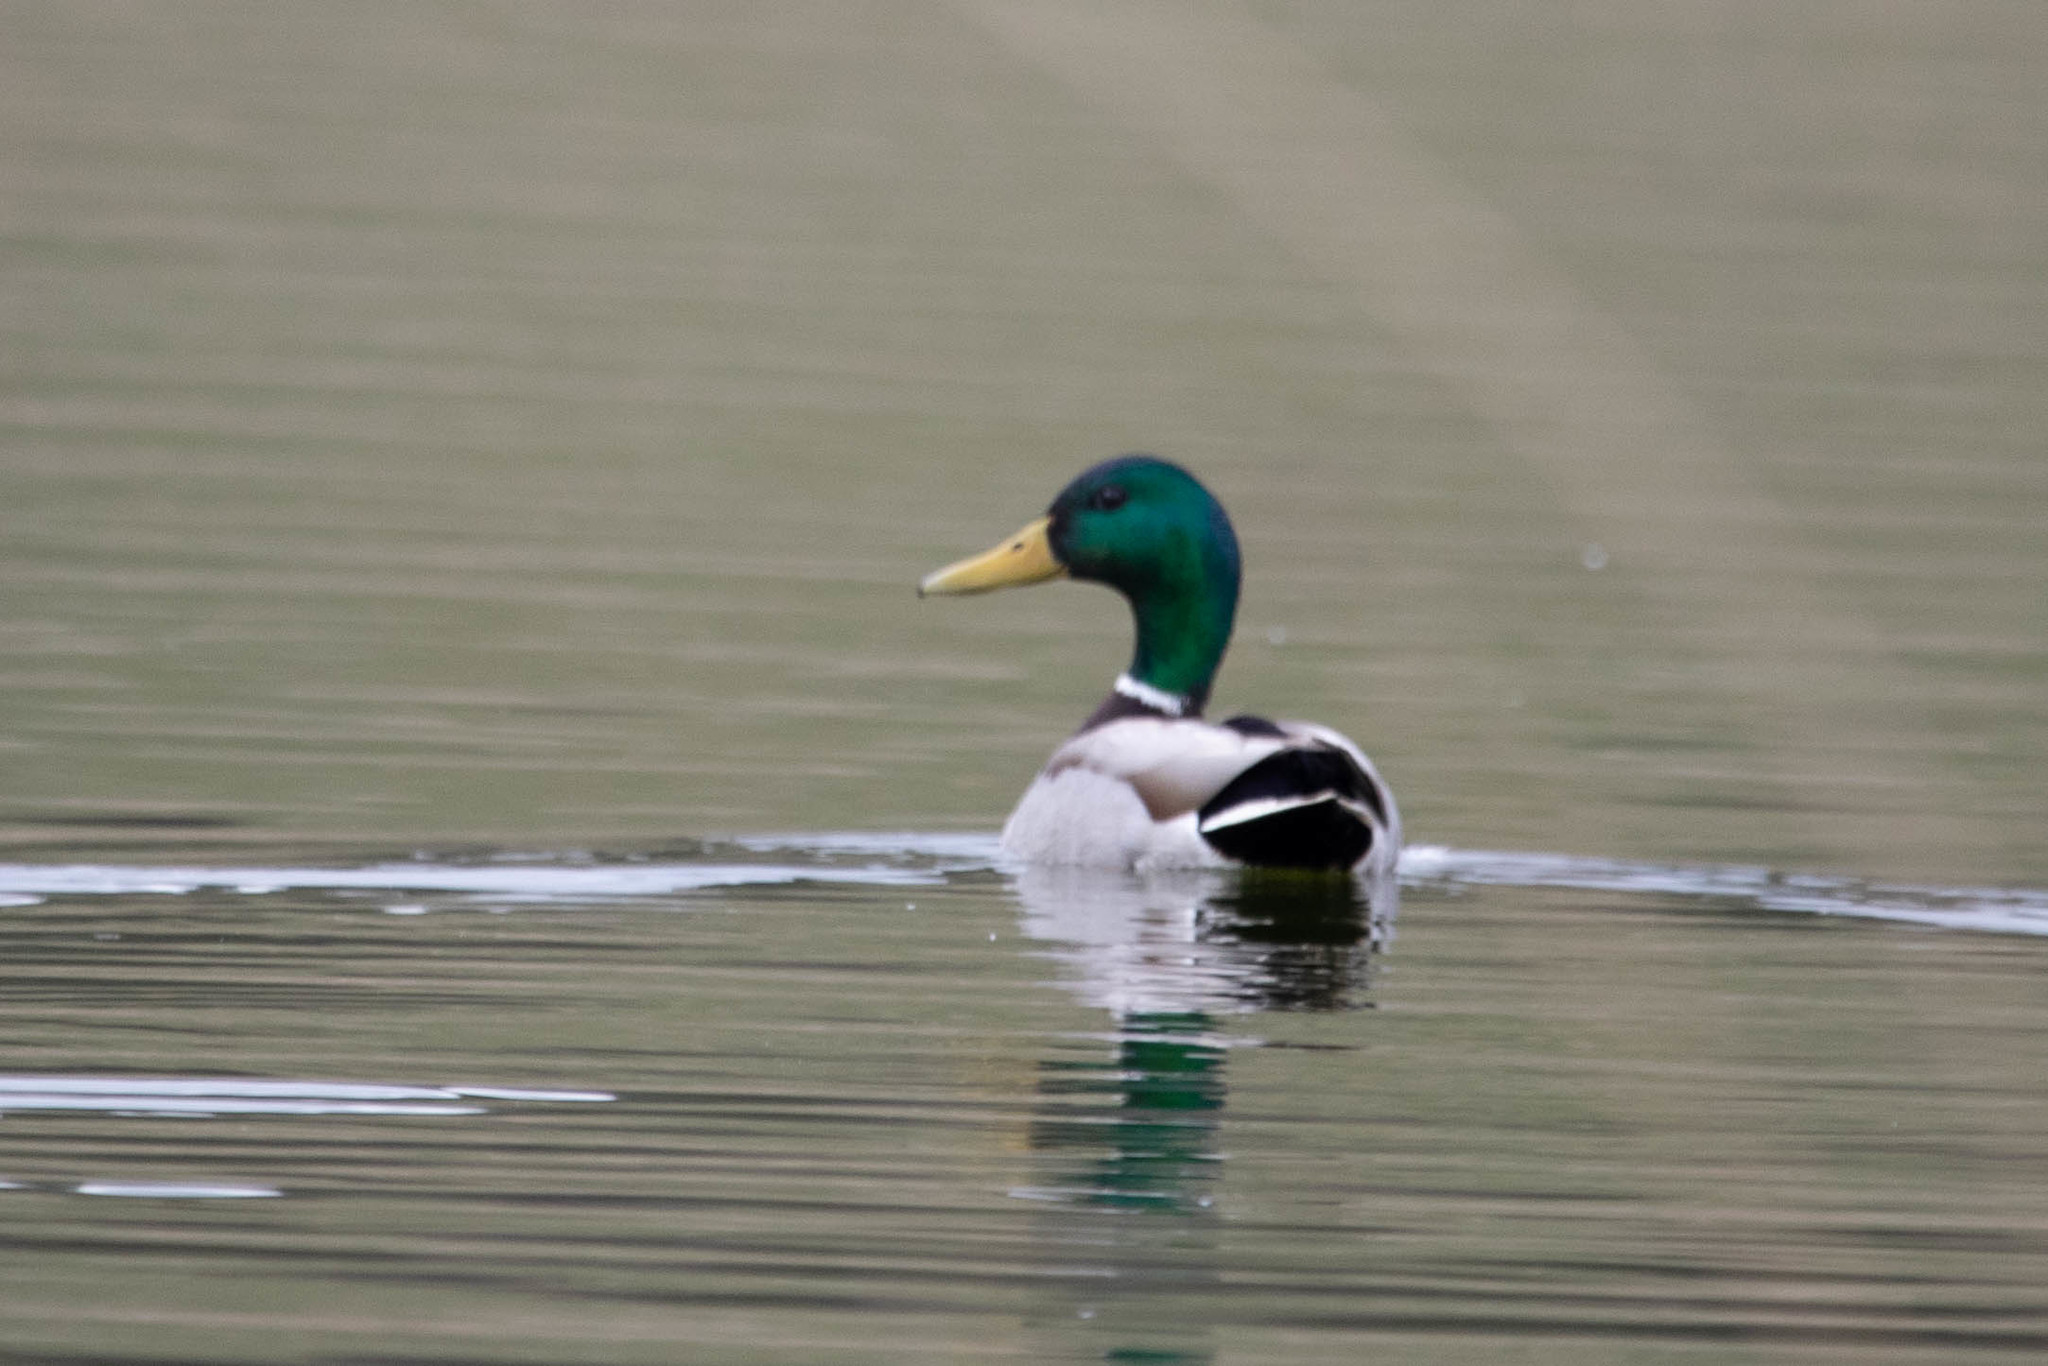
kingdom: Animalia
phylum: Chordata
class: Aves
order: Anseriformes
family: Anatidae
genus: Anas
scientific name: Anas platyrhynchos
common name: Mallard
